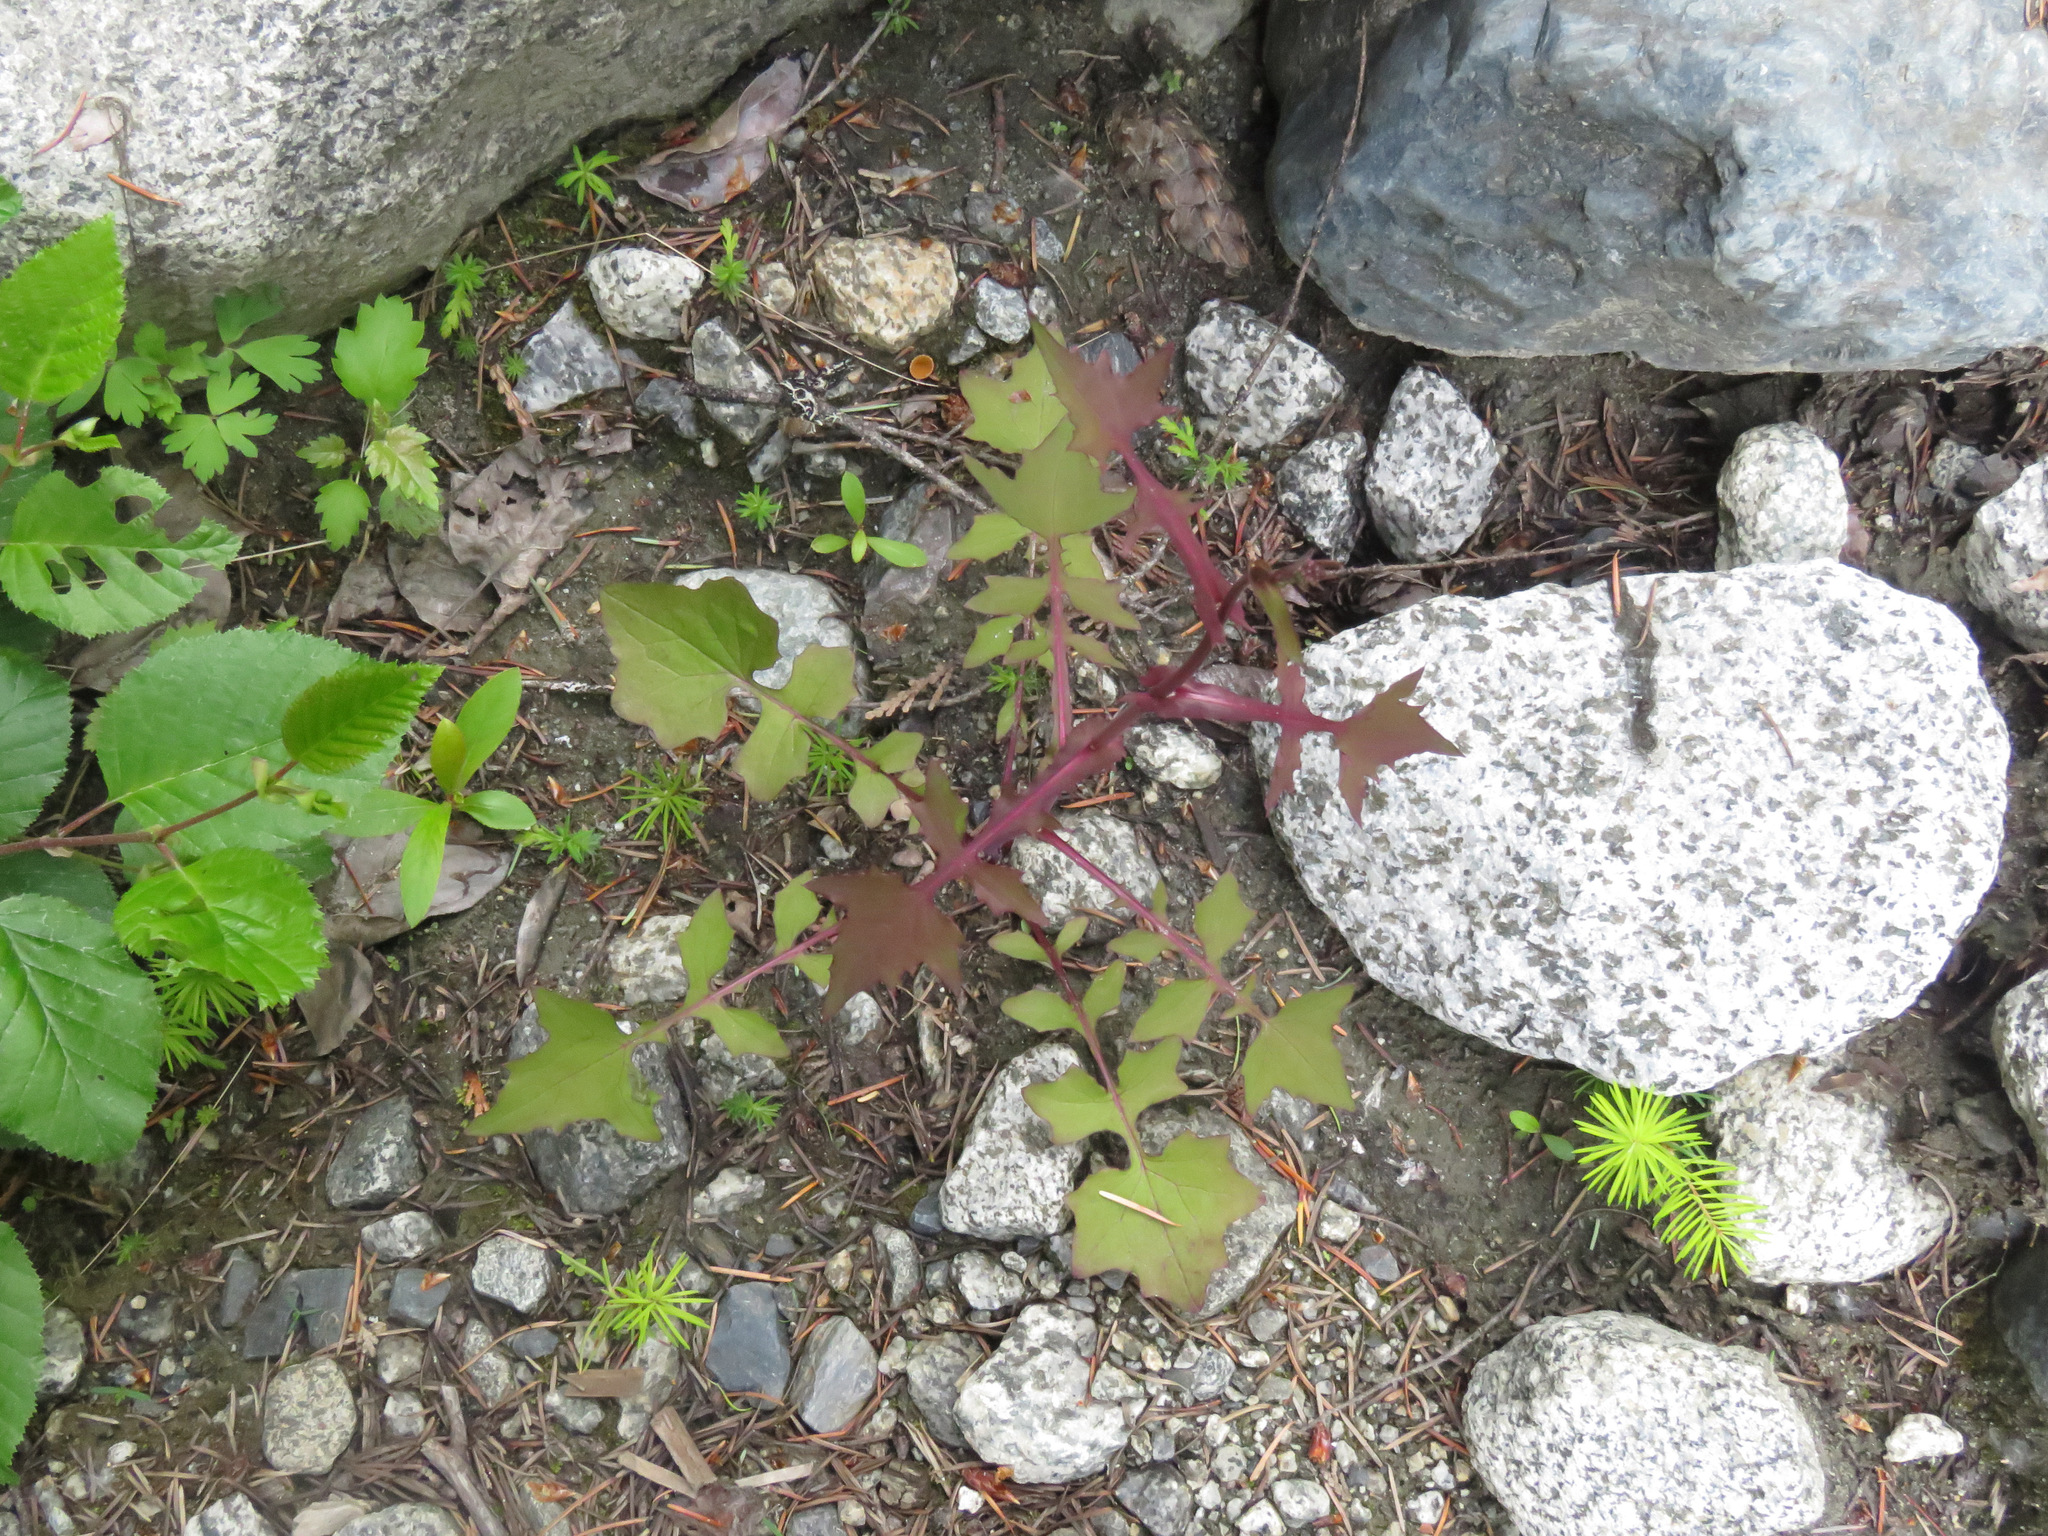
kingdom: Plantae
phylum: Tracheophyta
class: Magnoliopsida
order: Asterales
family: Asteraceae
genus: Mycelis
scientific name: Mycelis muralis
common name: Wall lettuce
